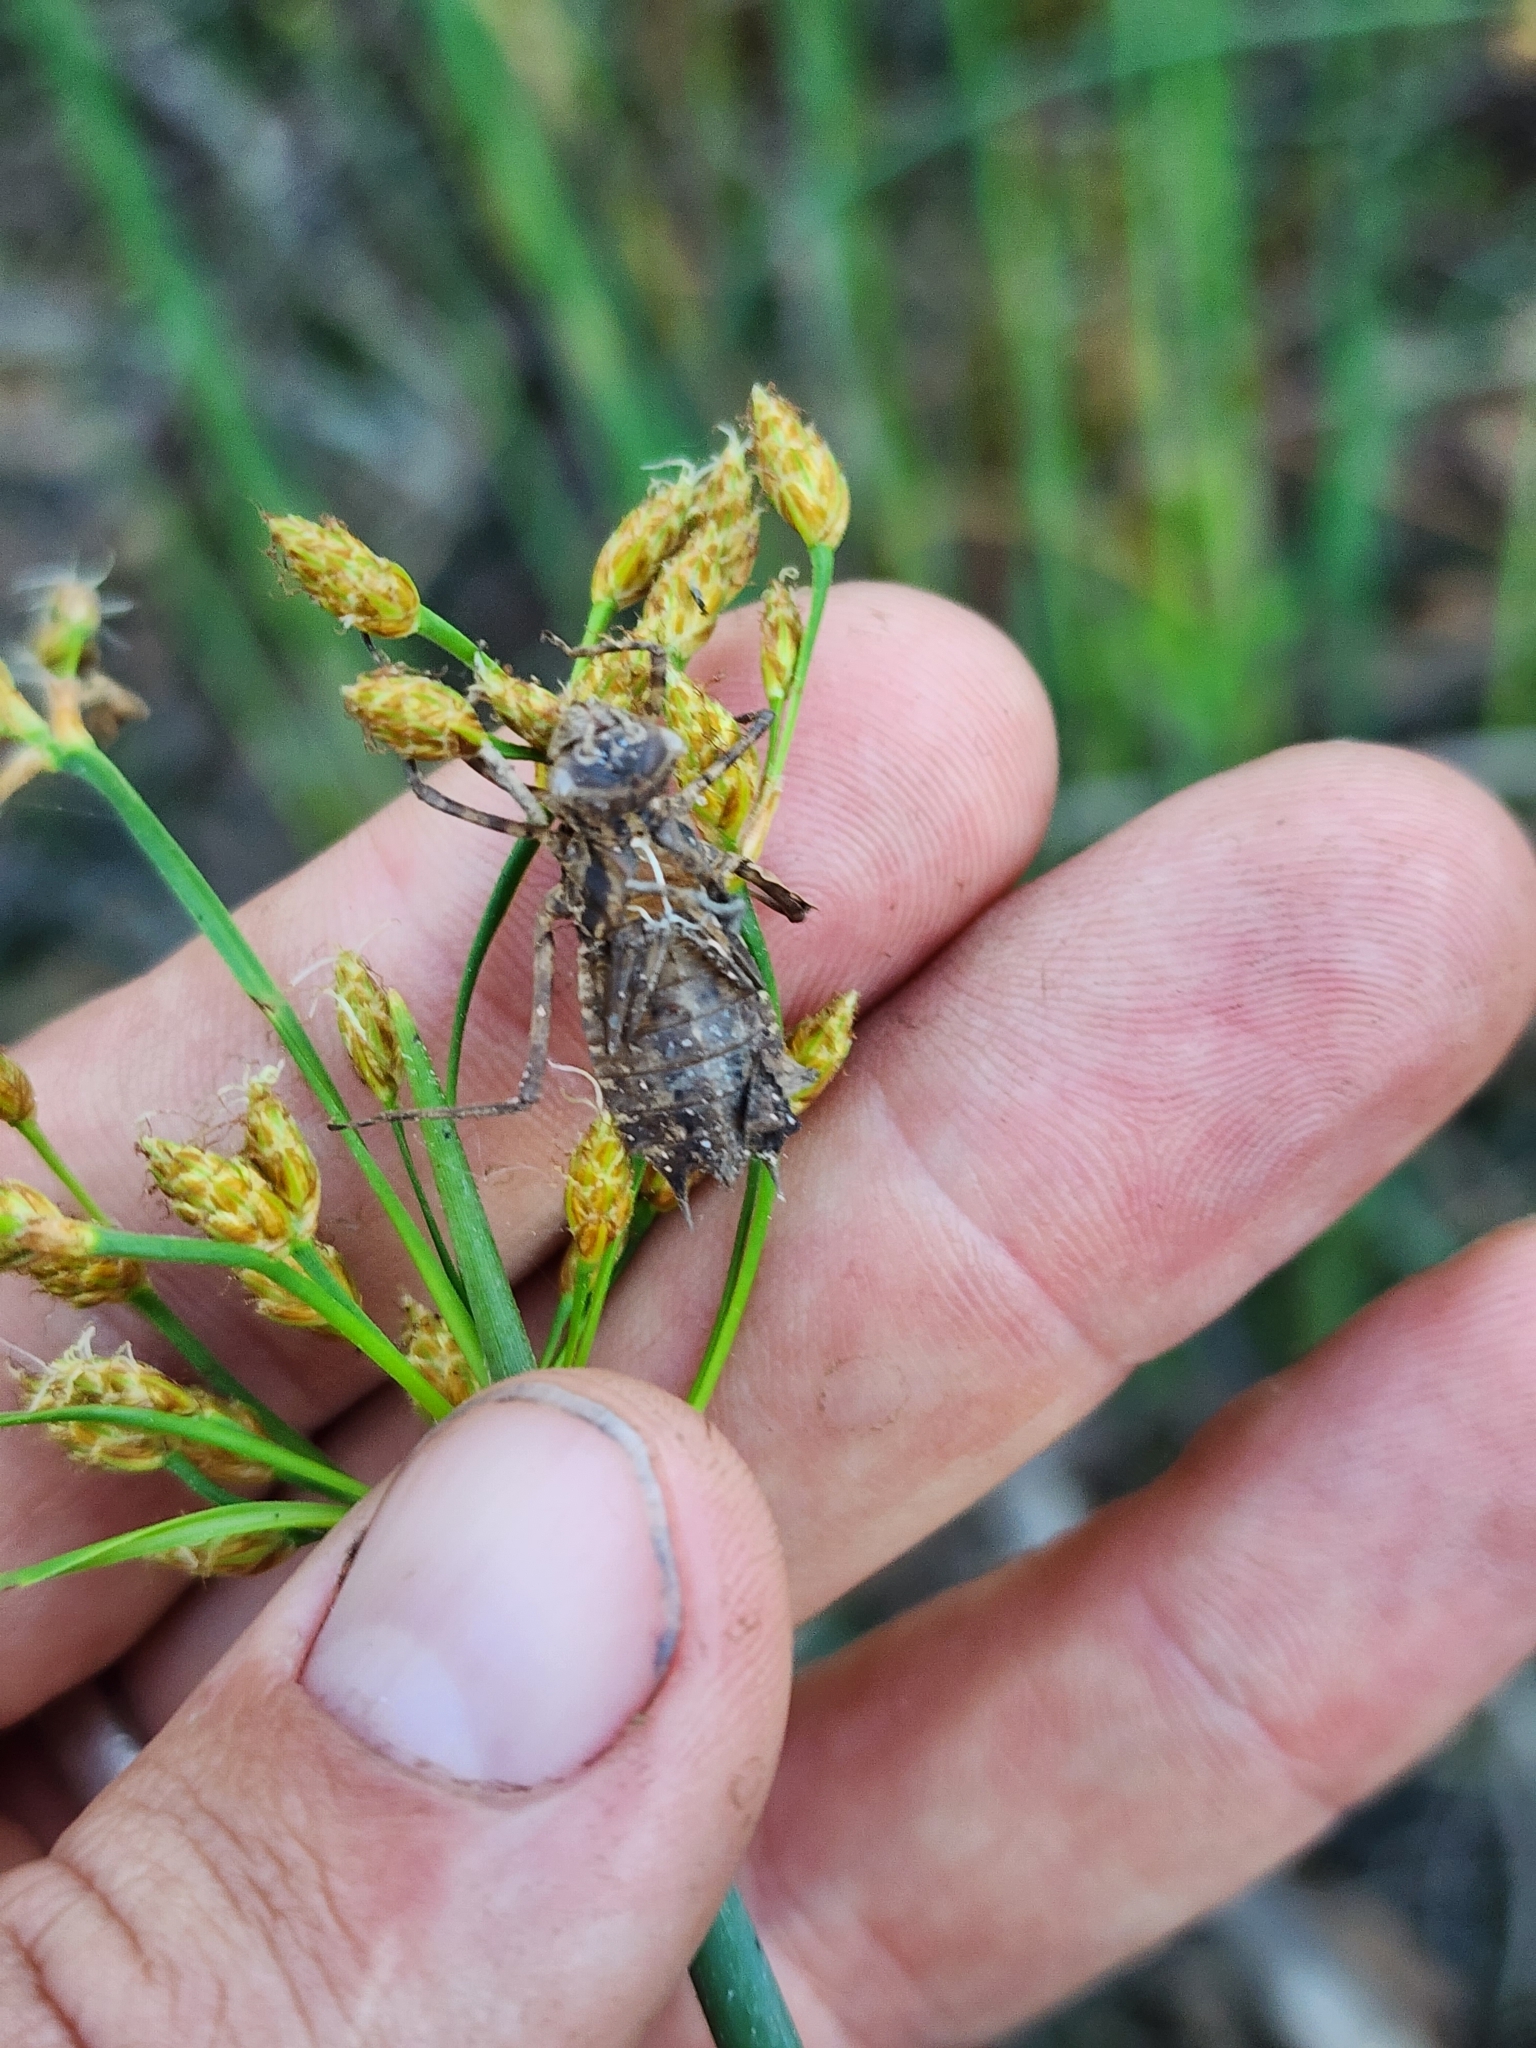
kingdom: Plantae
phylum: Tracheophyta
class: Liliopsida
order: Poales
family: Cyperaceae
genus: Schoenoplectus
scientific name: Schoenoplectus tabernaemontani
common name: Grey club-rush
